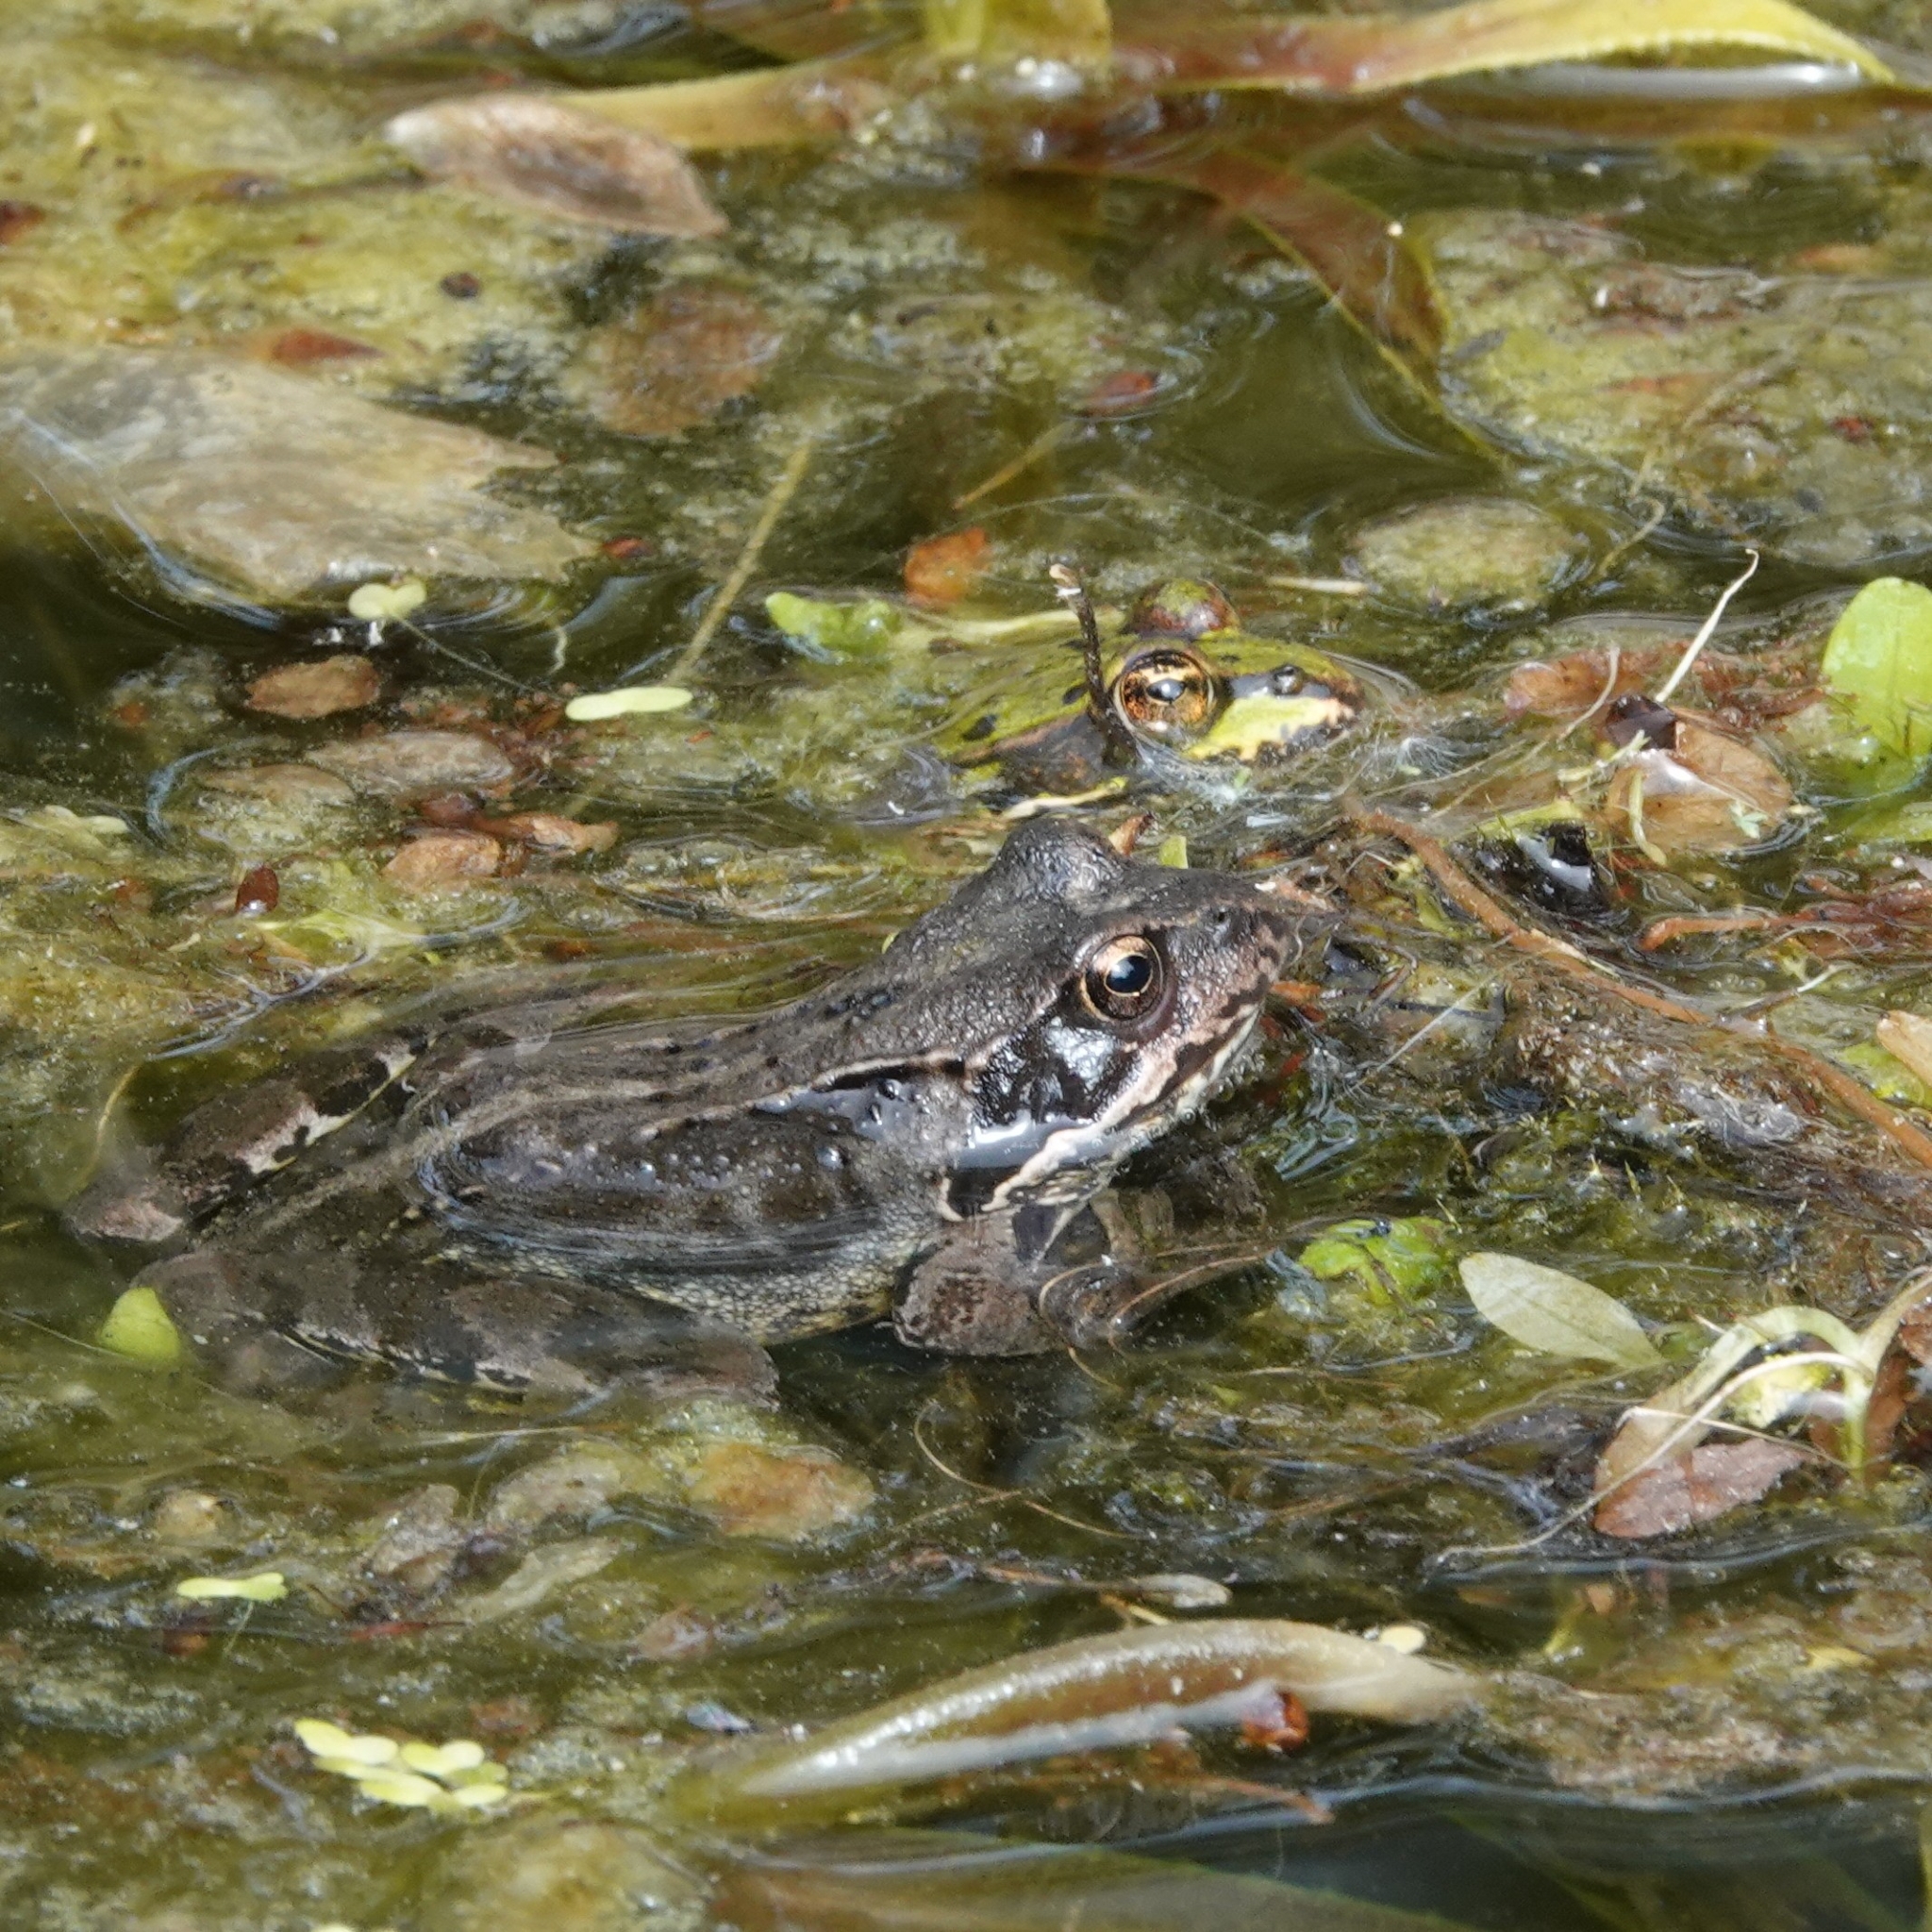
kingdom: Animalia
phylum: Chordata
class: Amphibia
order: Anura
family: Ranidae
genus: Rana
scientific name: Rana temporaria
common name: Common frog
